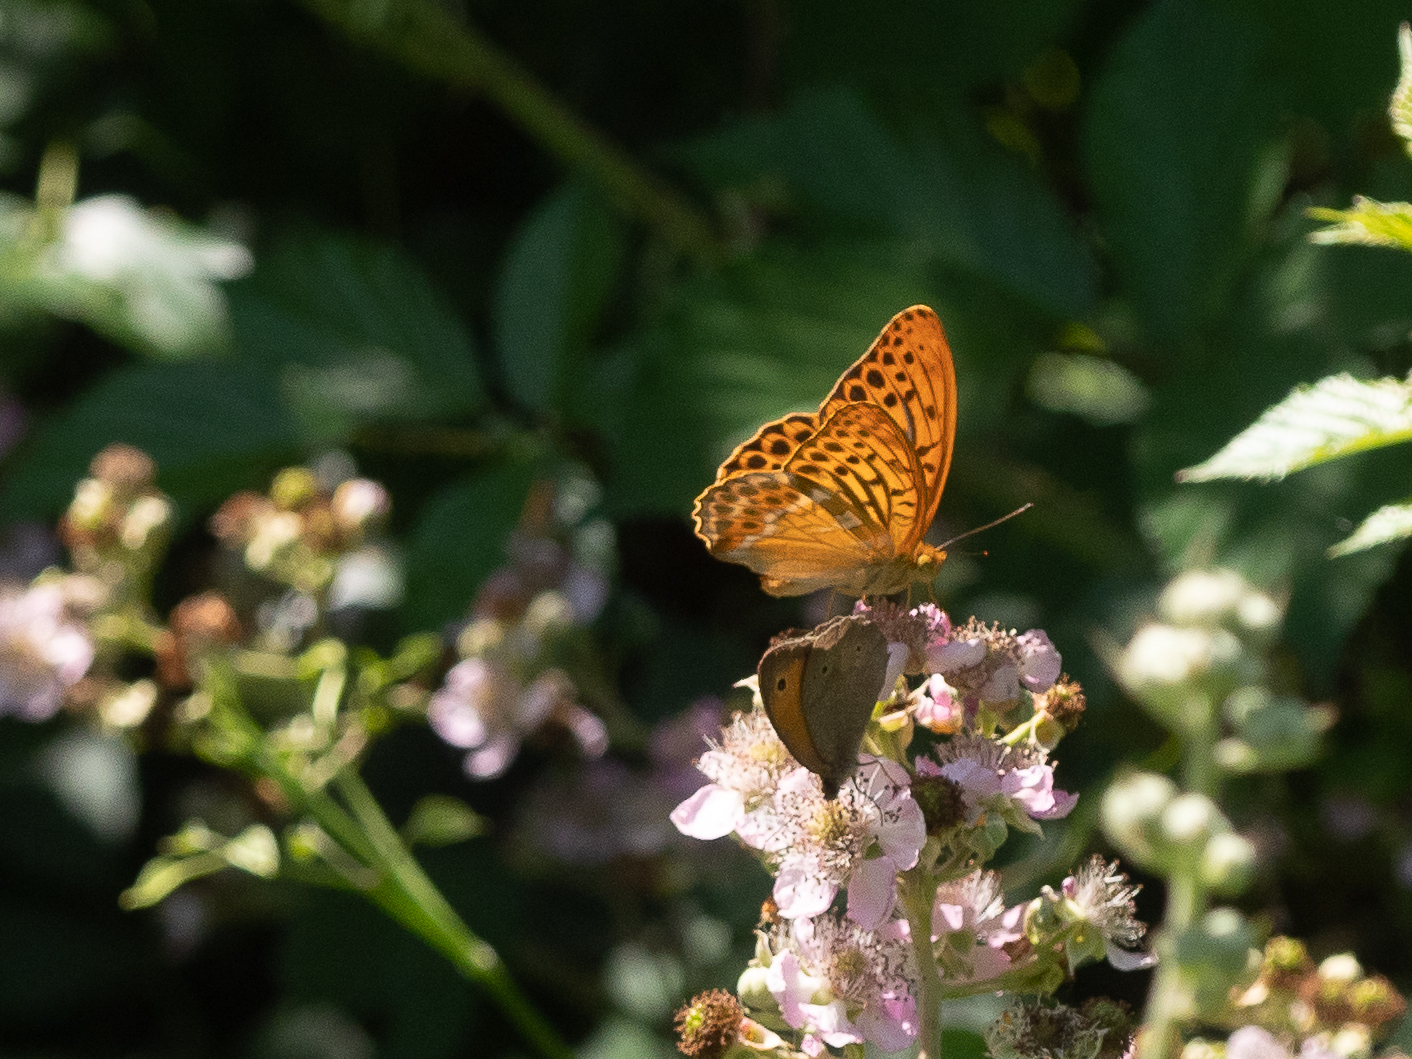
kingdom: Animalia
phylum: Arthropoda
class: Insecta
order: Lepidoptera
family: Nymphalidae
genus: Argynnis
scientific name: Argynnis paphia
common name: Silver-washed fritillary
